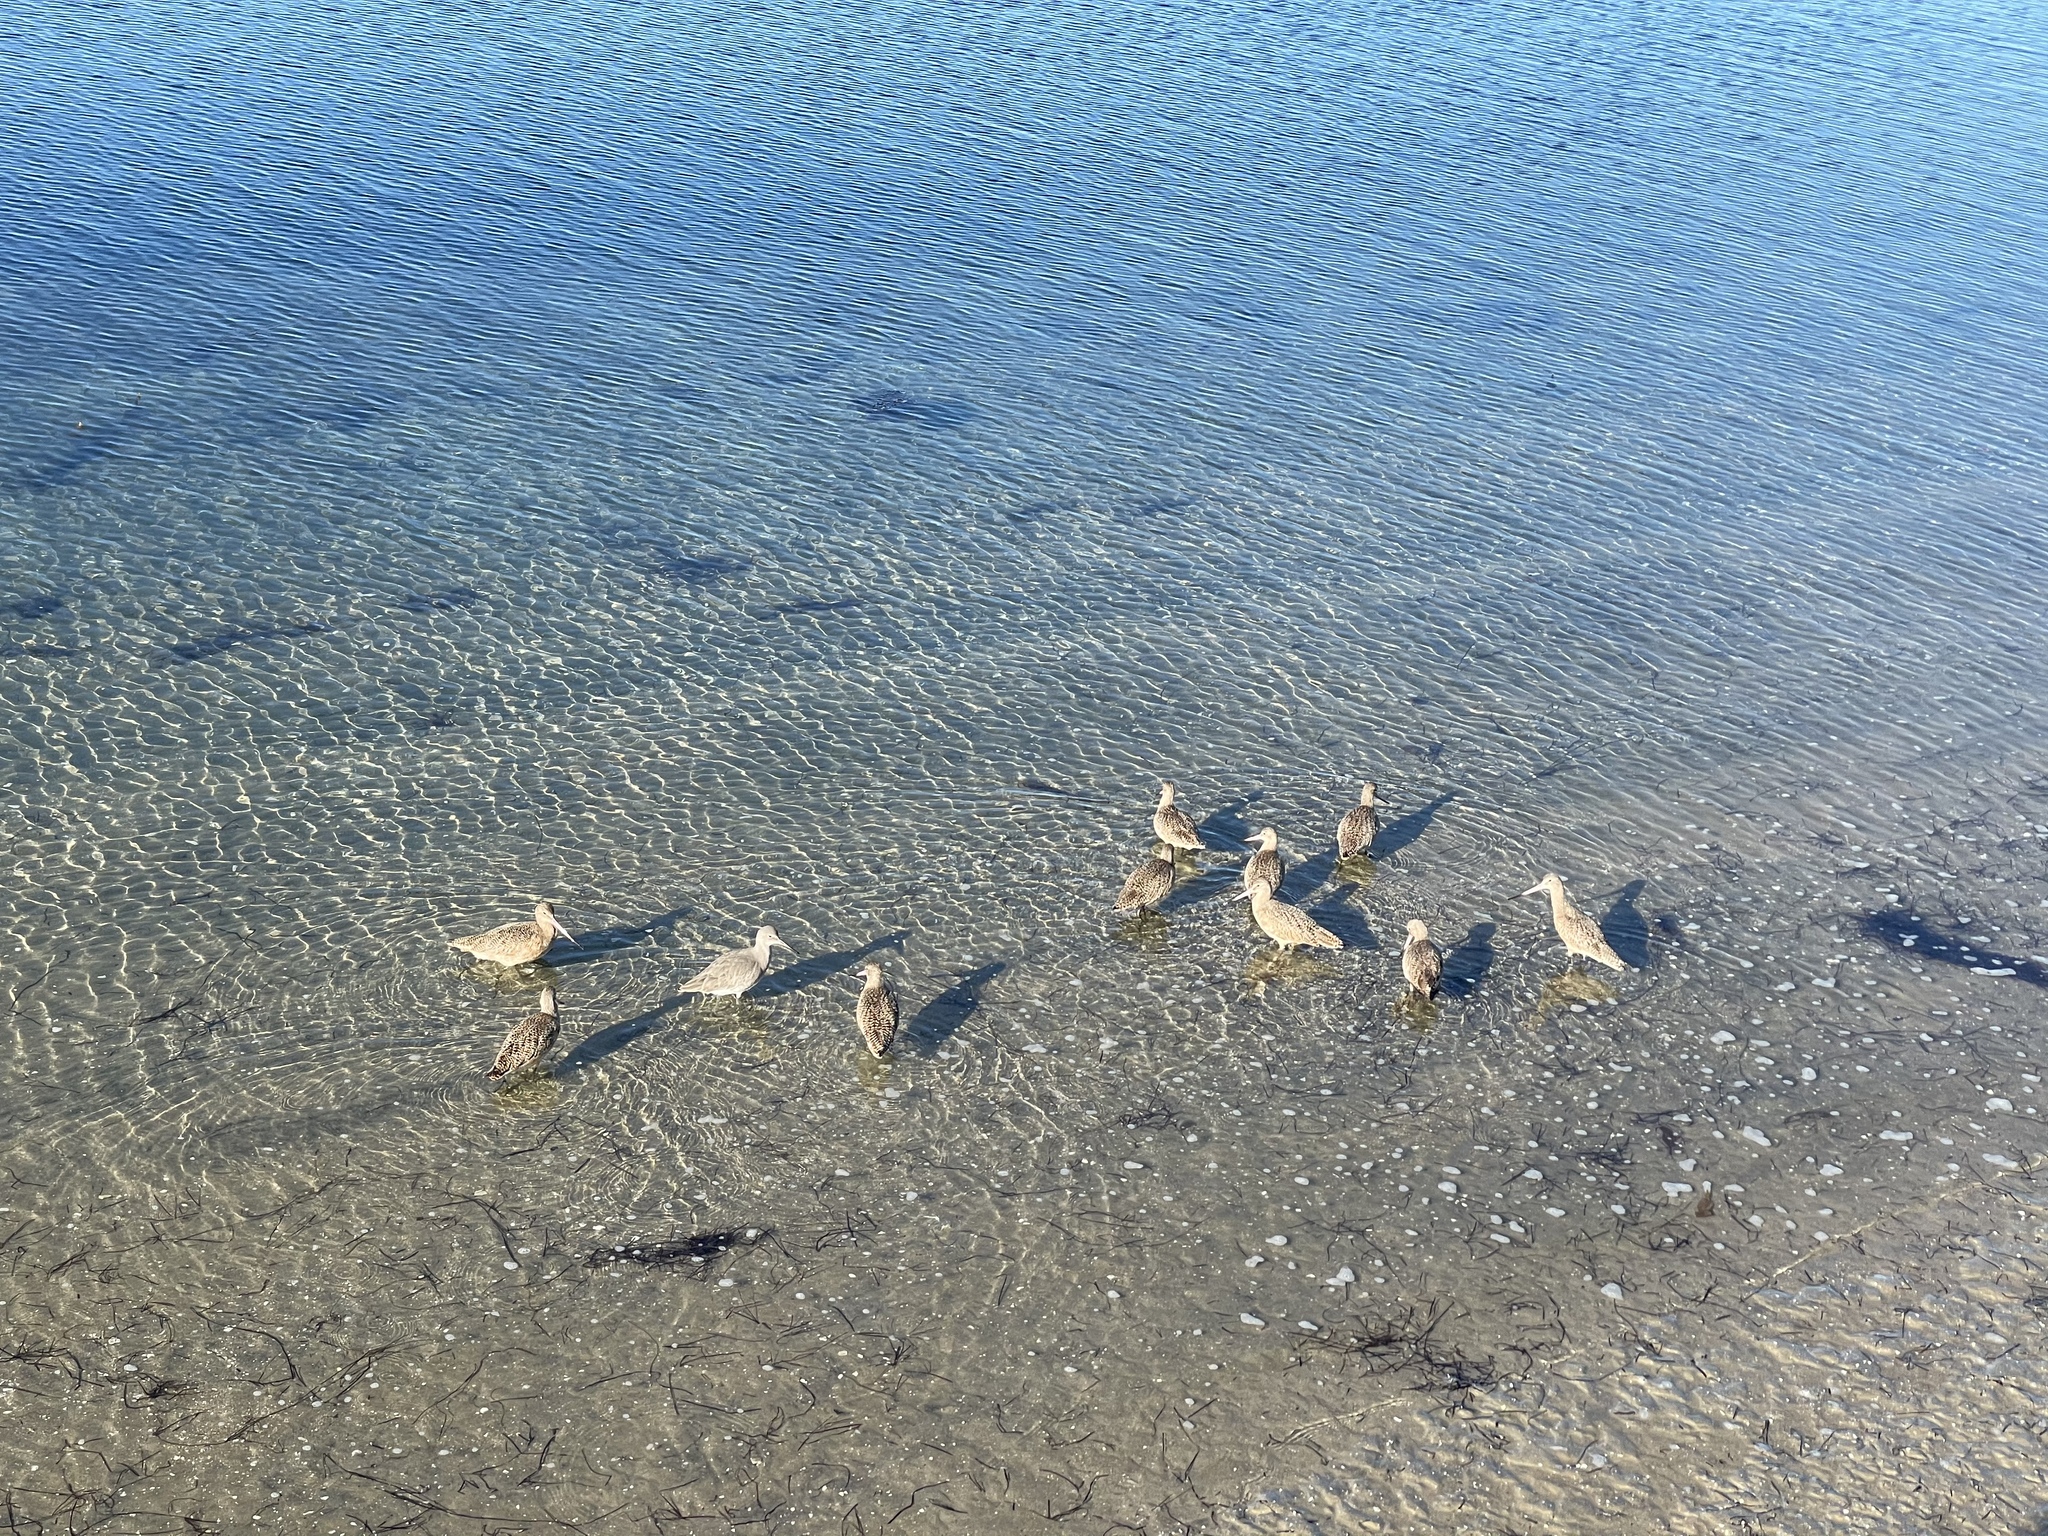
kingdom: Animalia
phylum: Chordata
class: Aves
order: Charadriiformes
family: Scolopacidae
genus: Tringa
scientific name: Tringa semipalmata
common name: Willet
